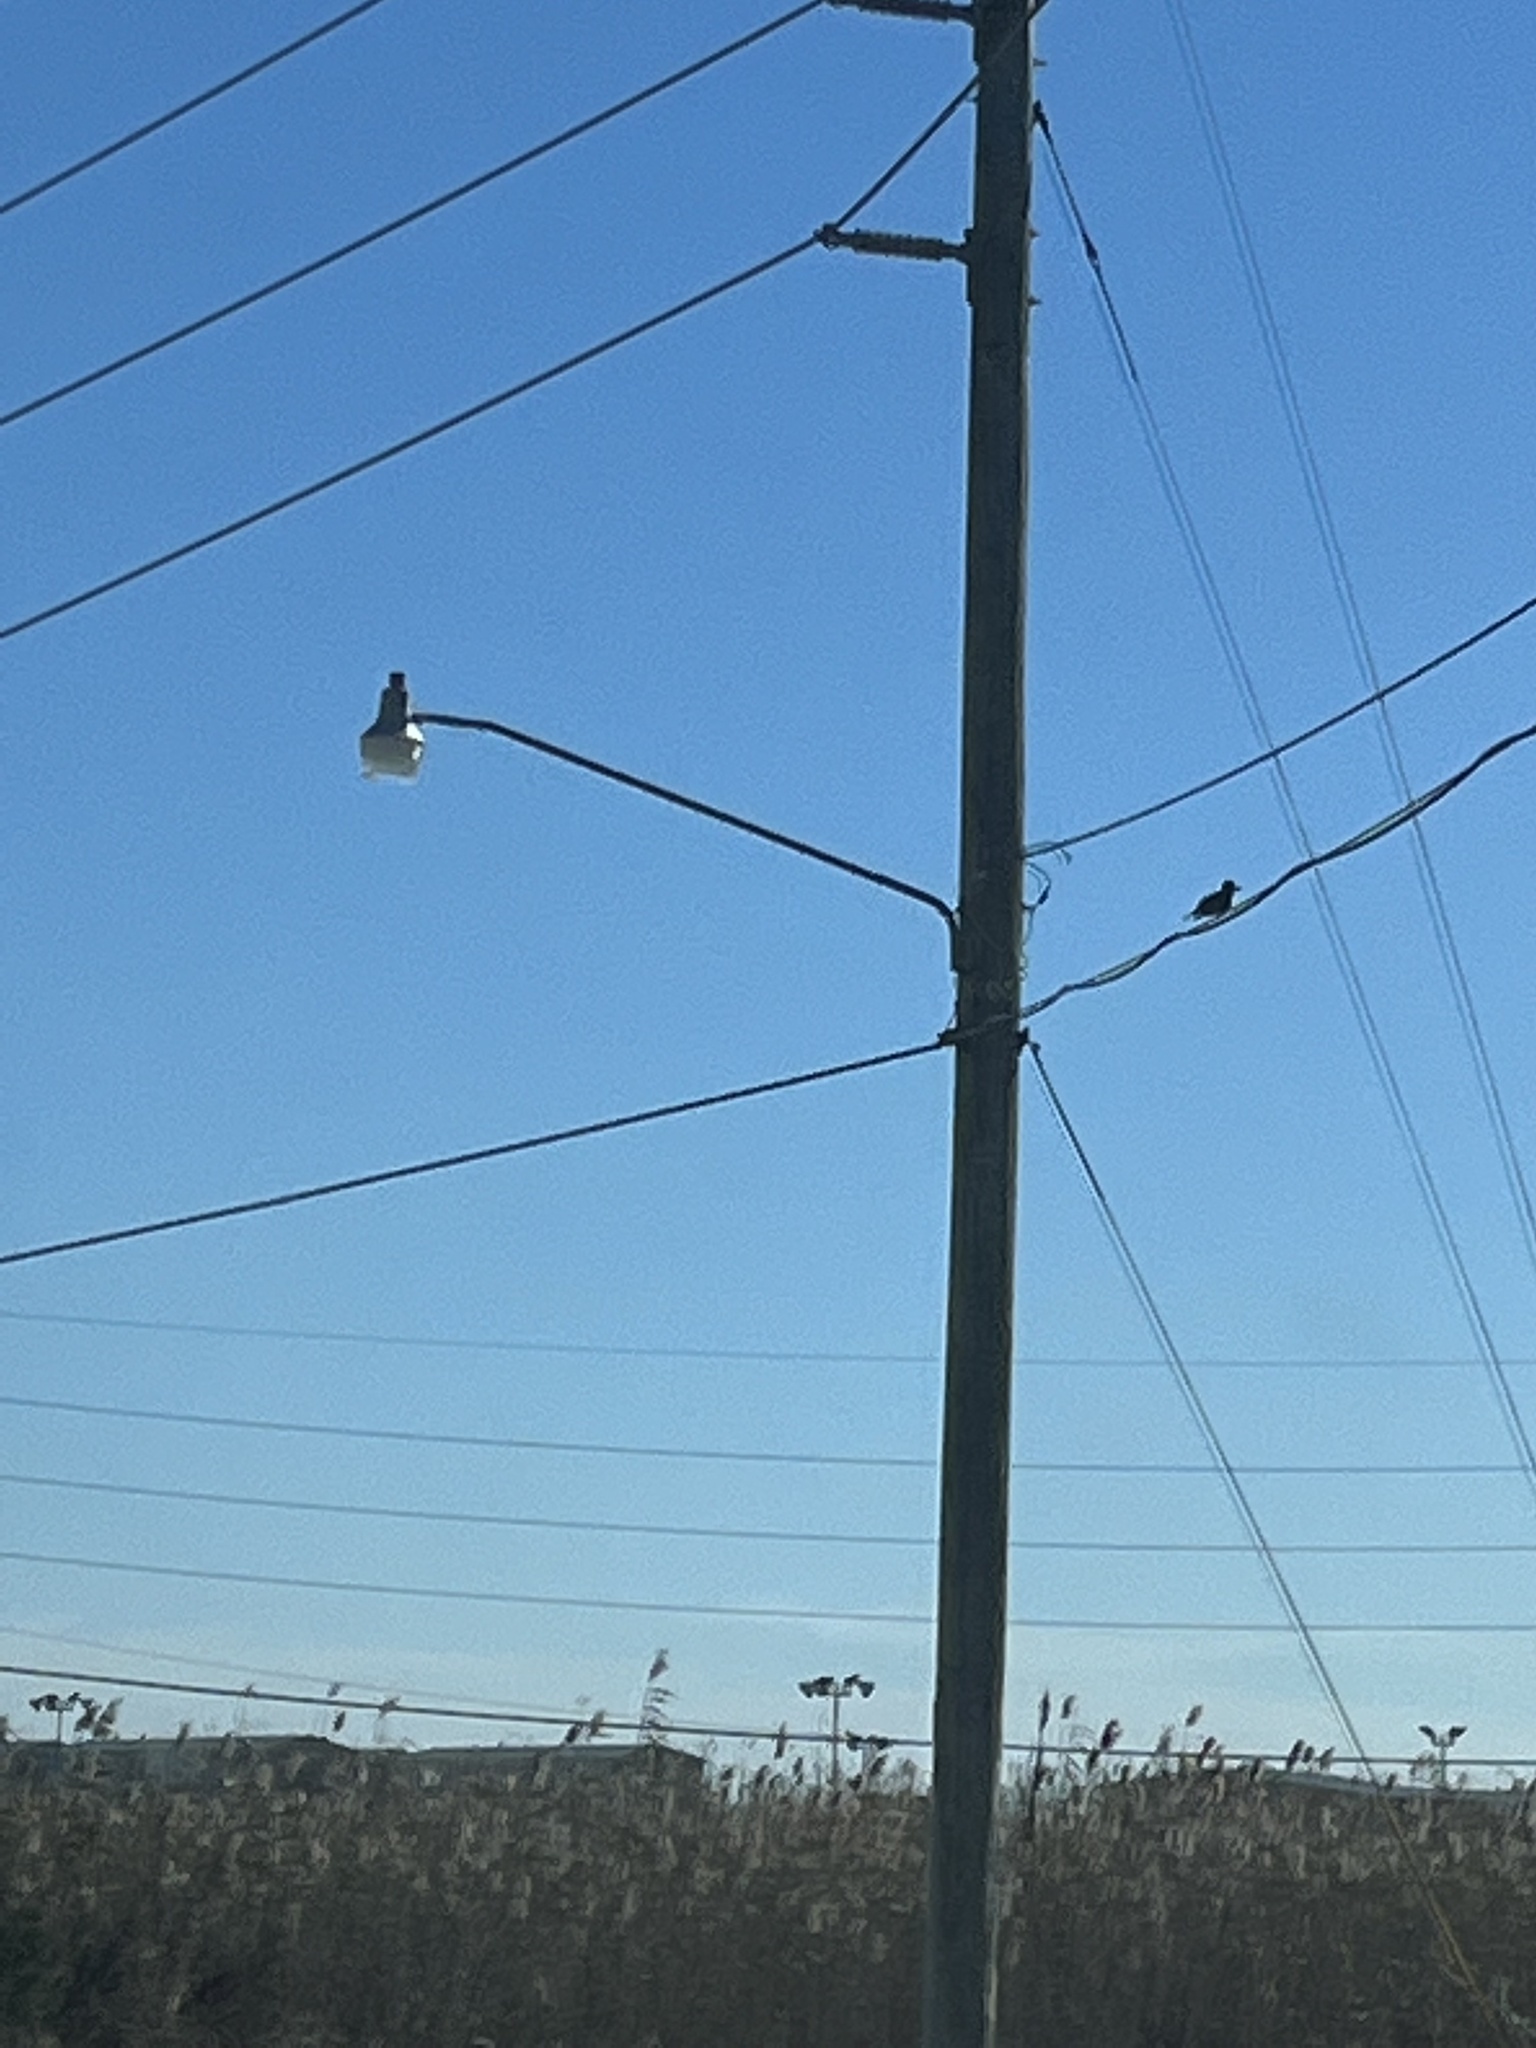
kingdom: Animalia
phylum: Chordata
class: Aves
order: Coraciiformes
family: Alcedinidae
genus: Megaceryle
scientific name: Megaceryle alcyon
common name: Belted kingfisher
